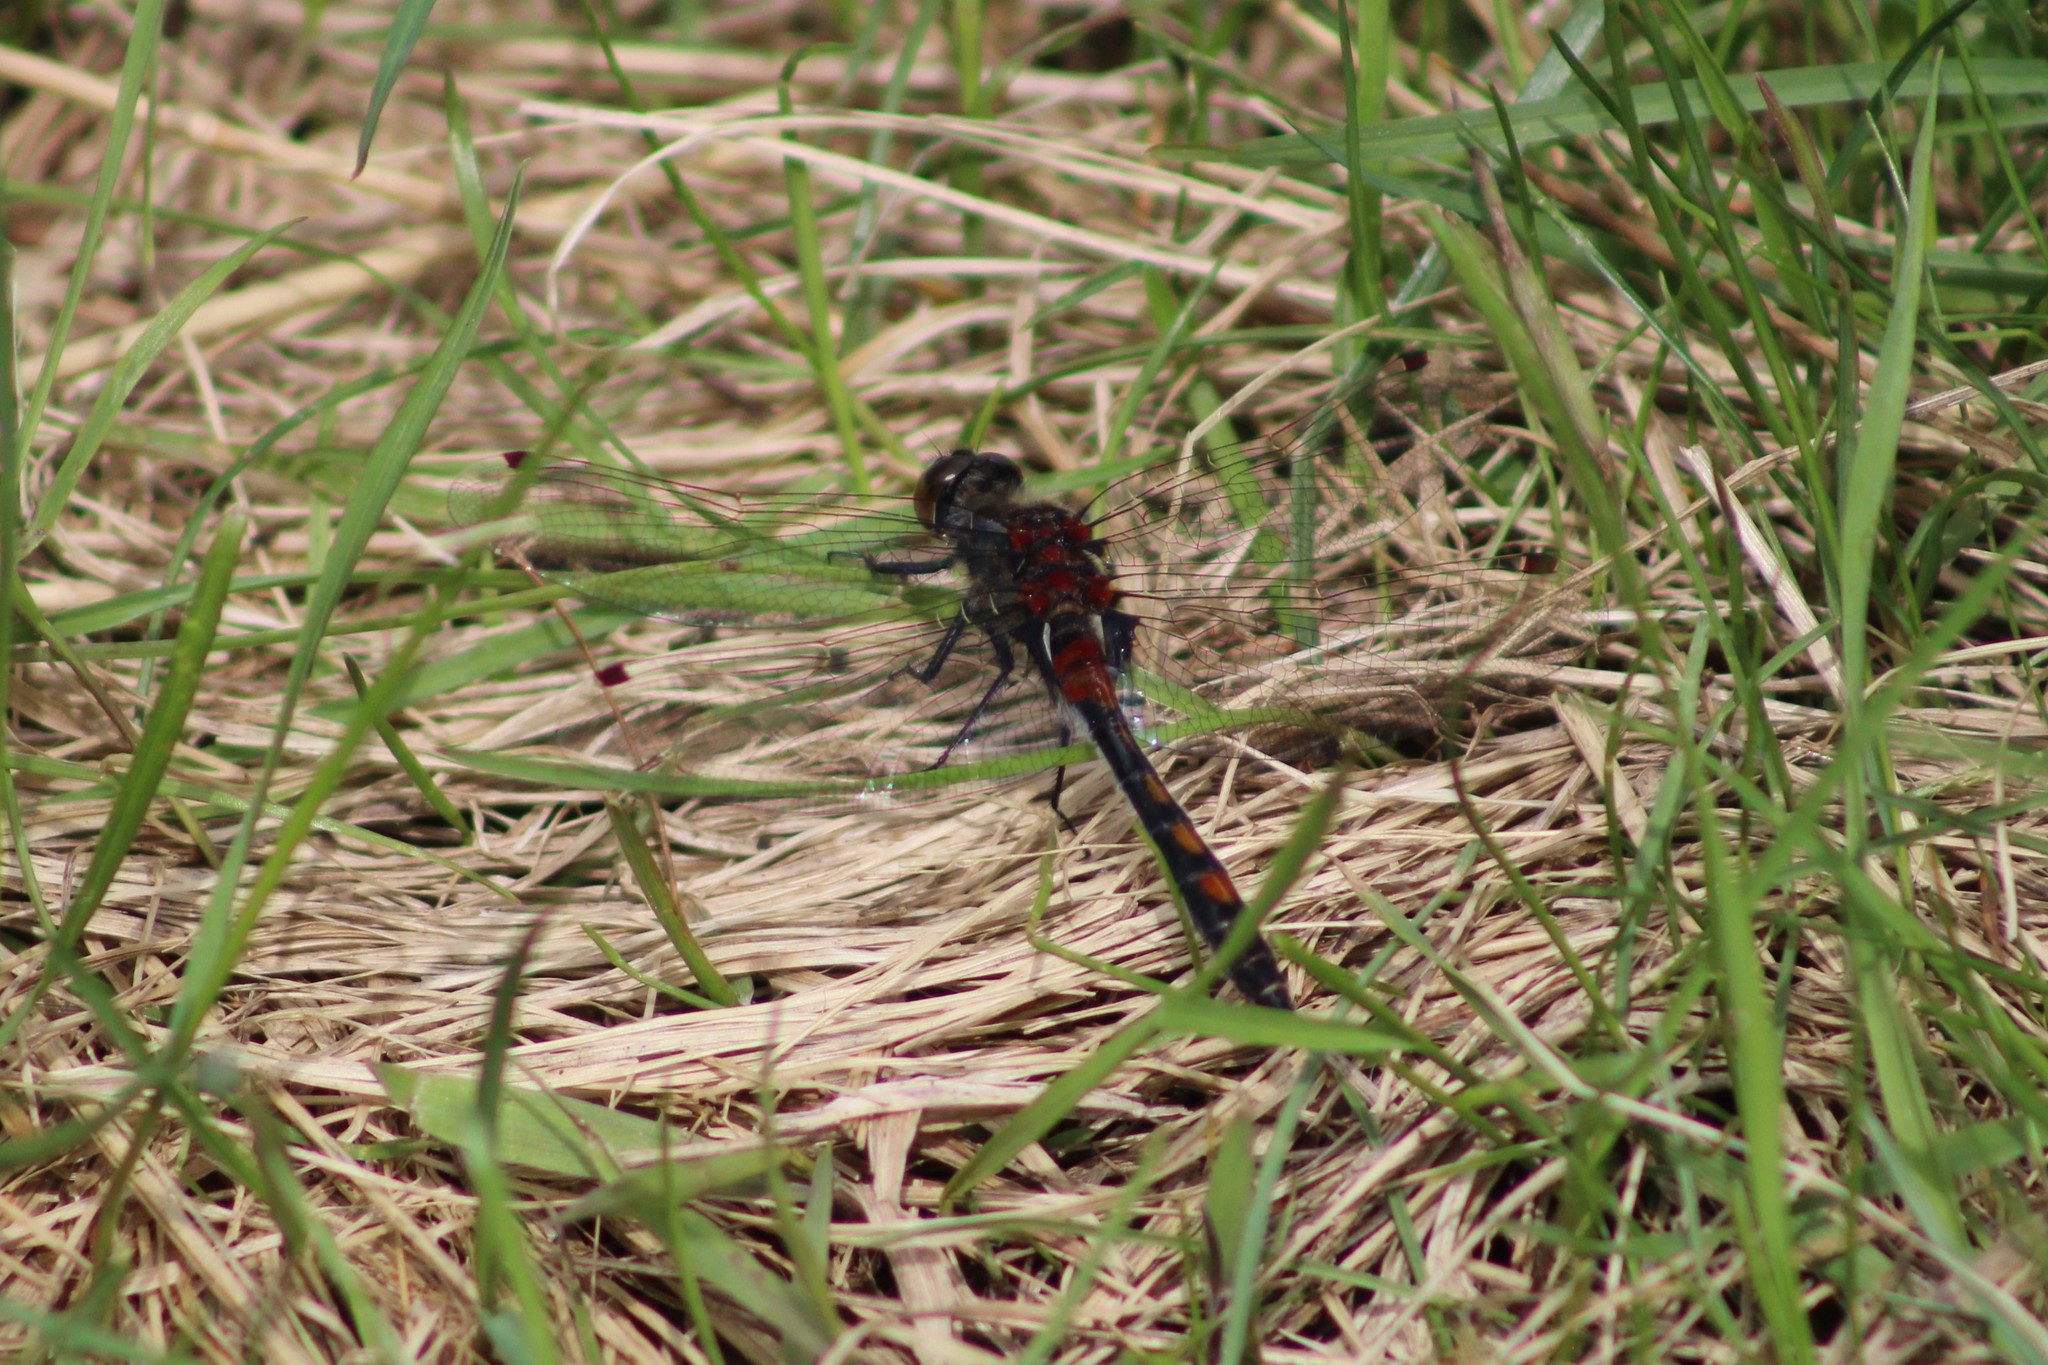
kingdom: Animalia
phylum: Arthropoda
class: Insecta
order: Odonata
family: Libellulidae
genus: Leucorrhinia
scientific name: Leucorrhinia rubicunda
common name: Ruby whiteface
